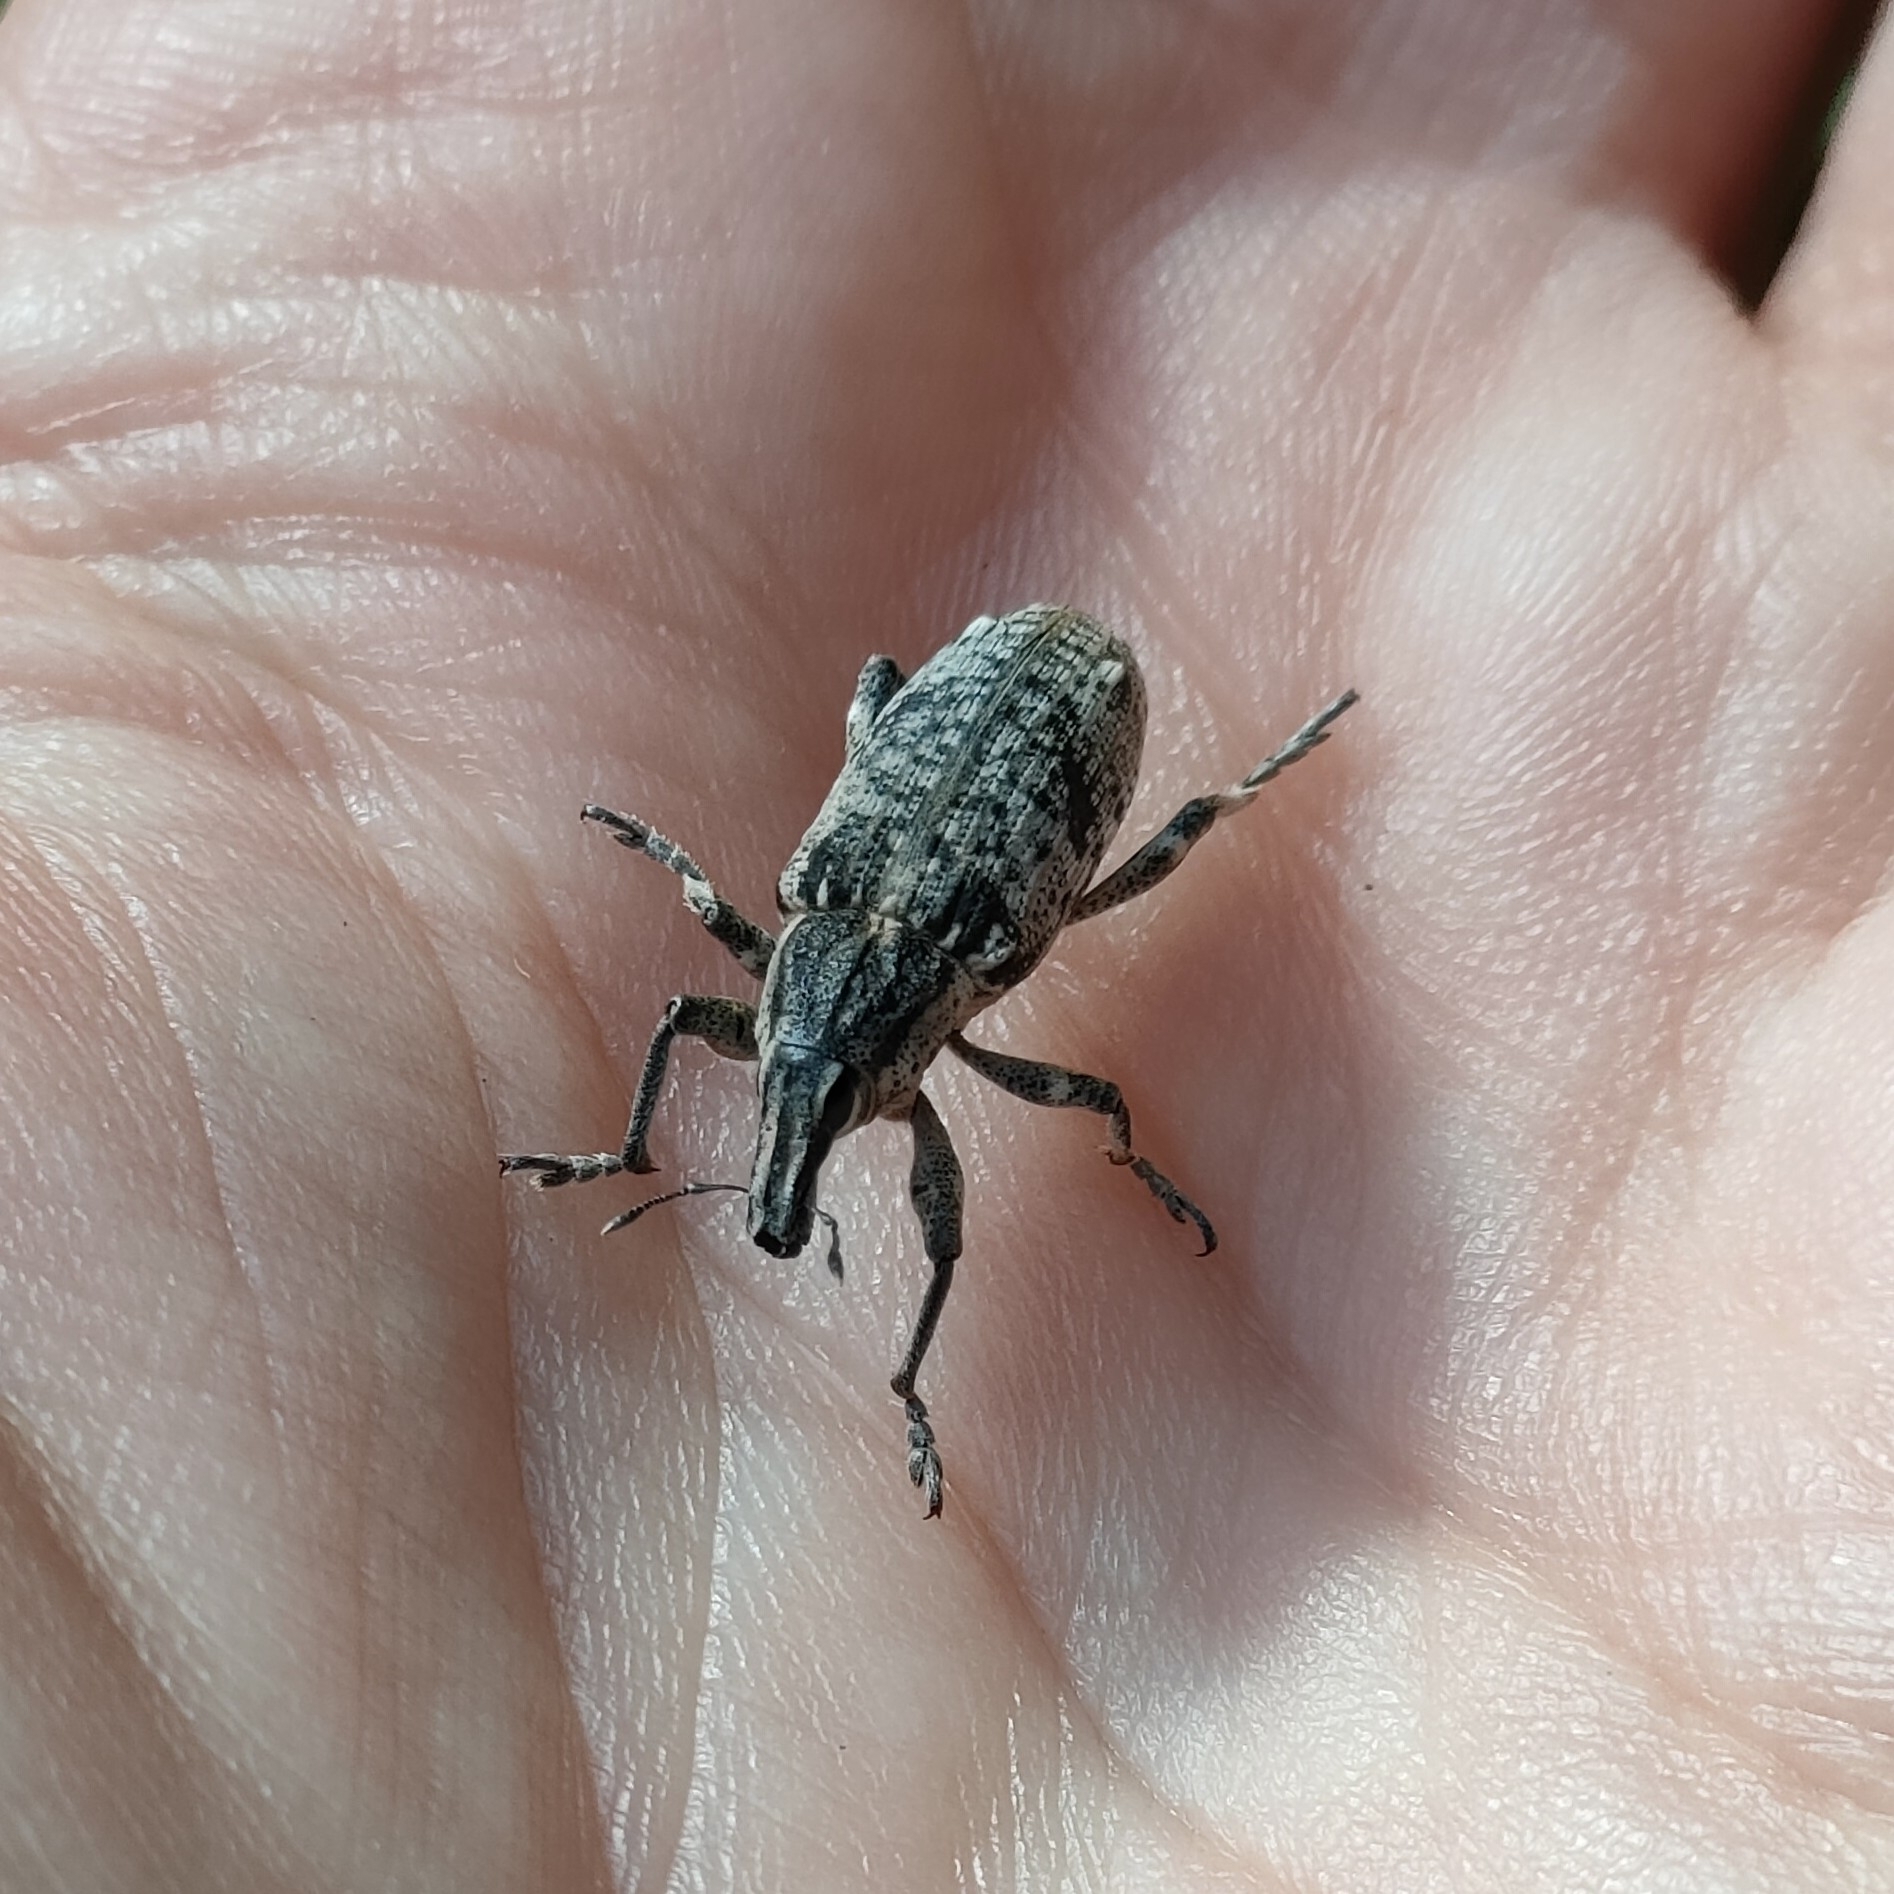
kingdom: Animalia
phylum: Arthropoda
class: Insecta
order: Coleoptera
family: Curculionidae
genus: Asproparthenis
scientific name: Asproparthenis punctiventris
